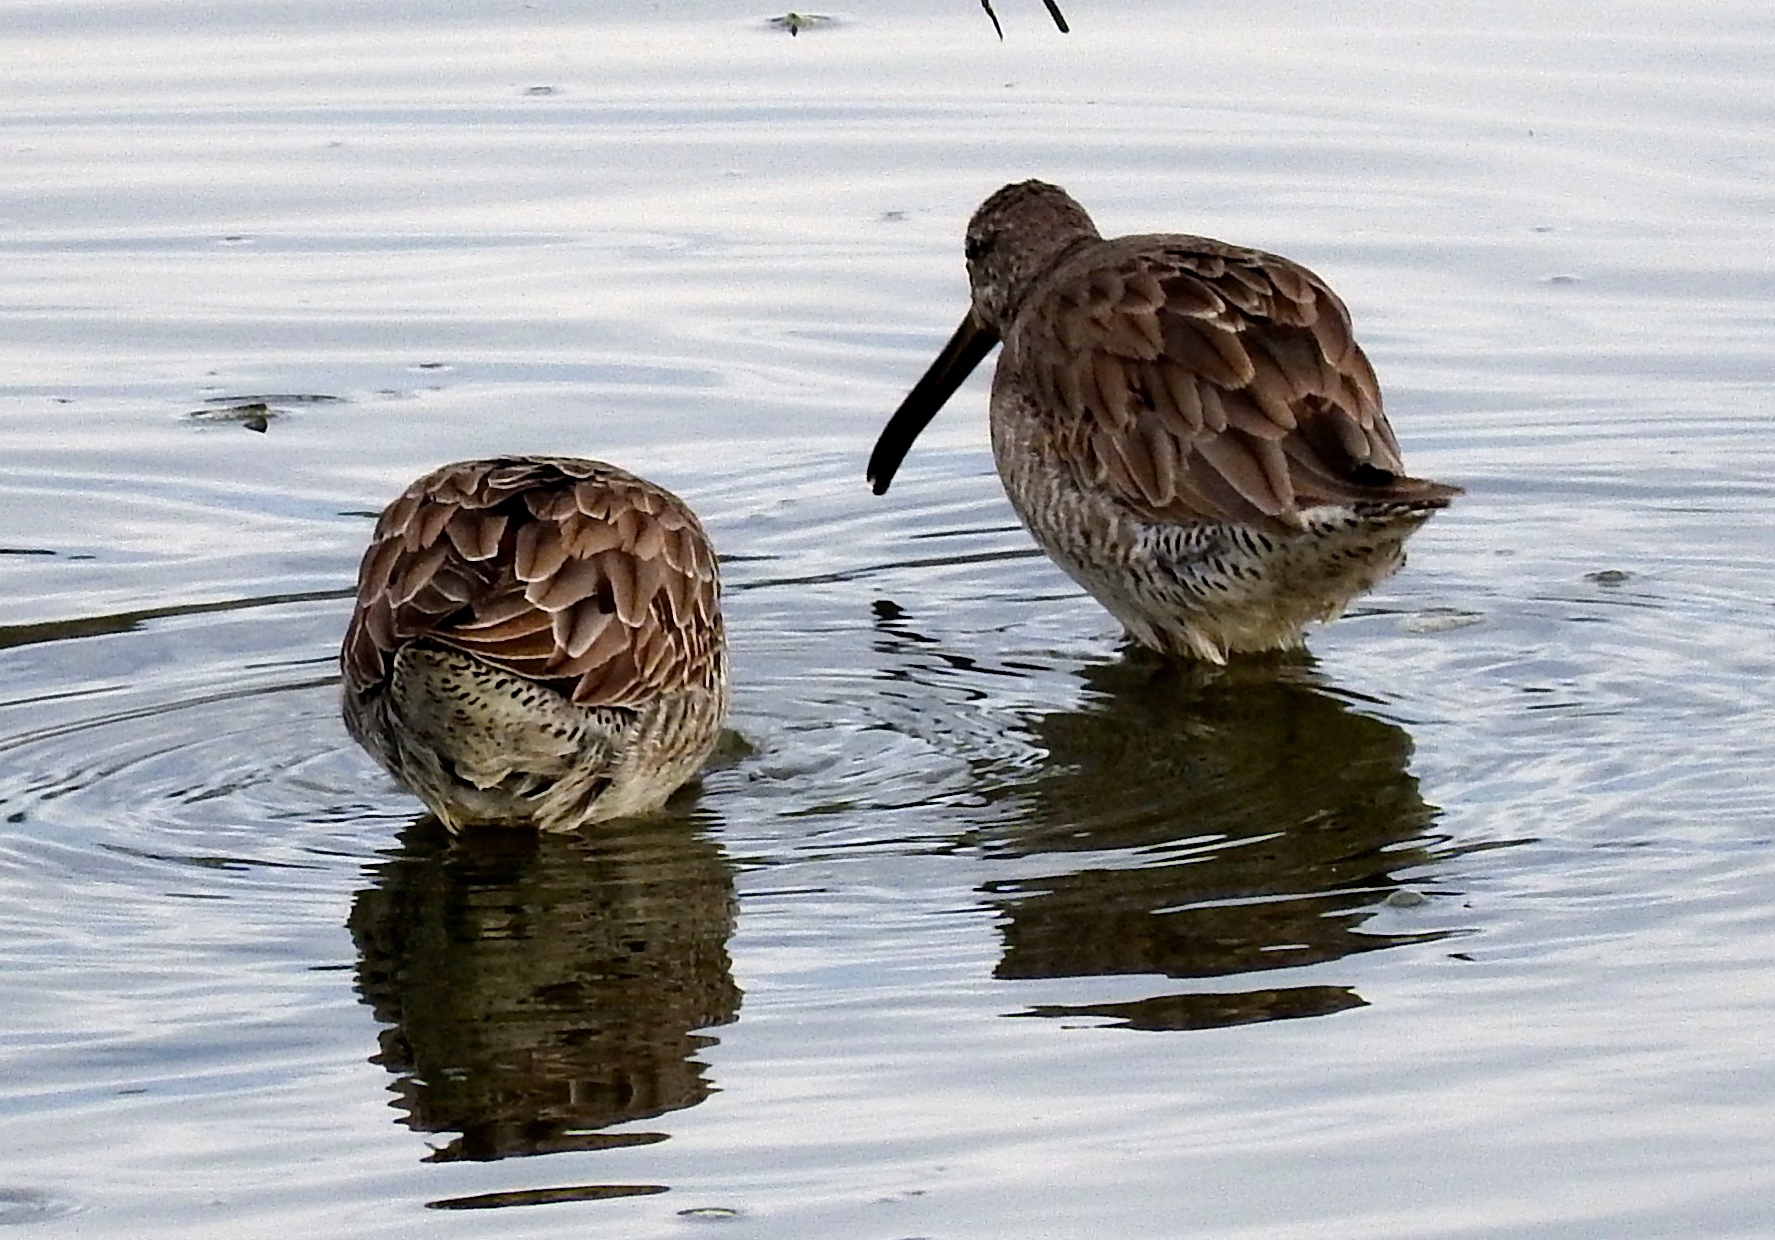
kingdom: Animalia
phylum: Chordata
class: Aves
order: Charadriiformes
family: Scolopacidae
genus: Limnodromus
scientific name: Limnodromus
